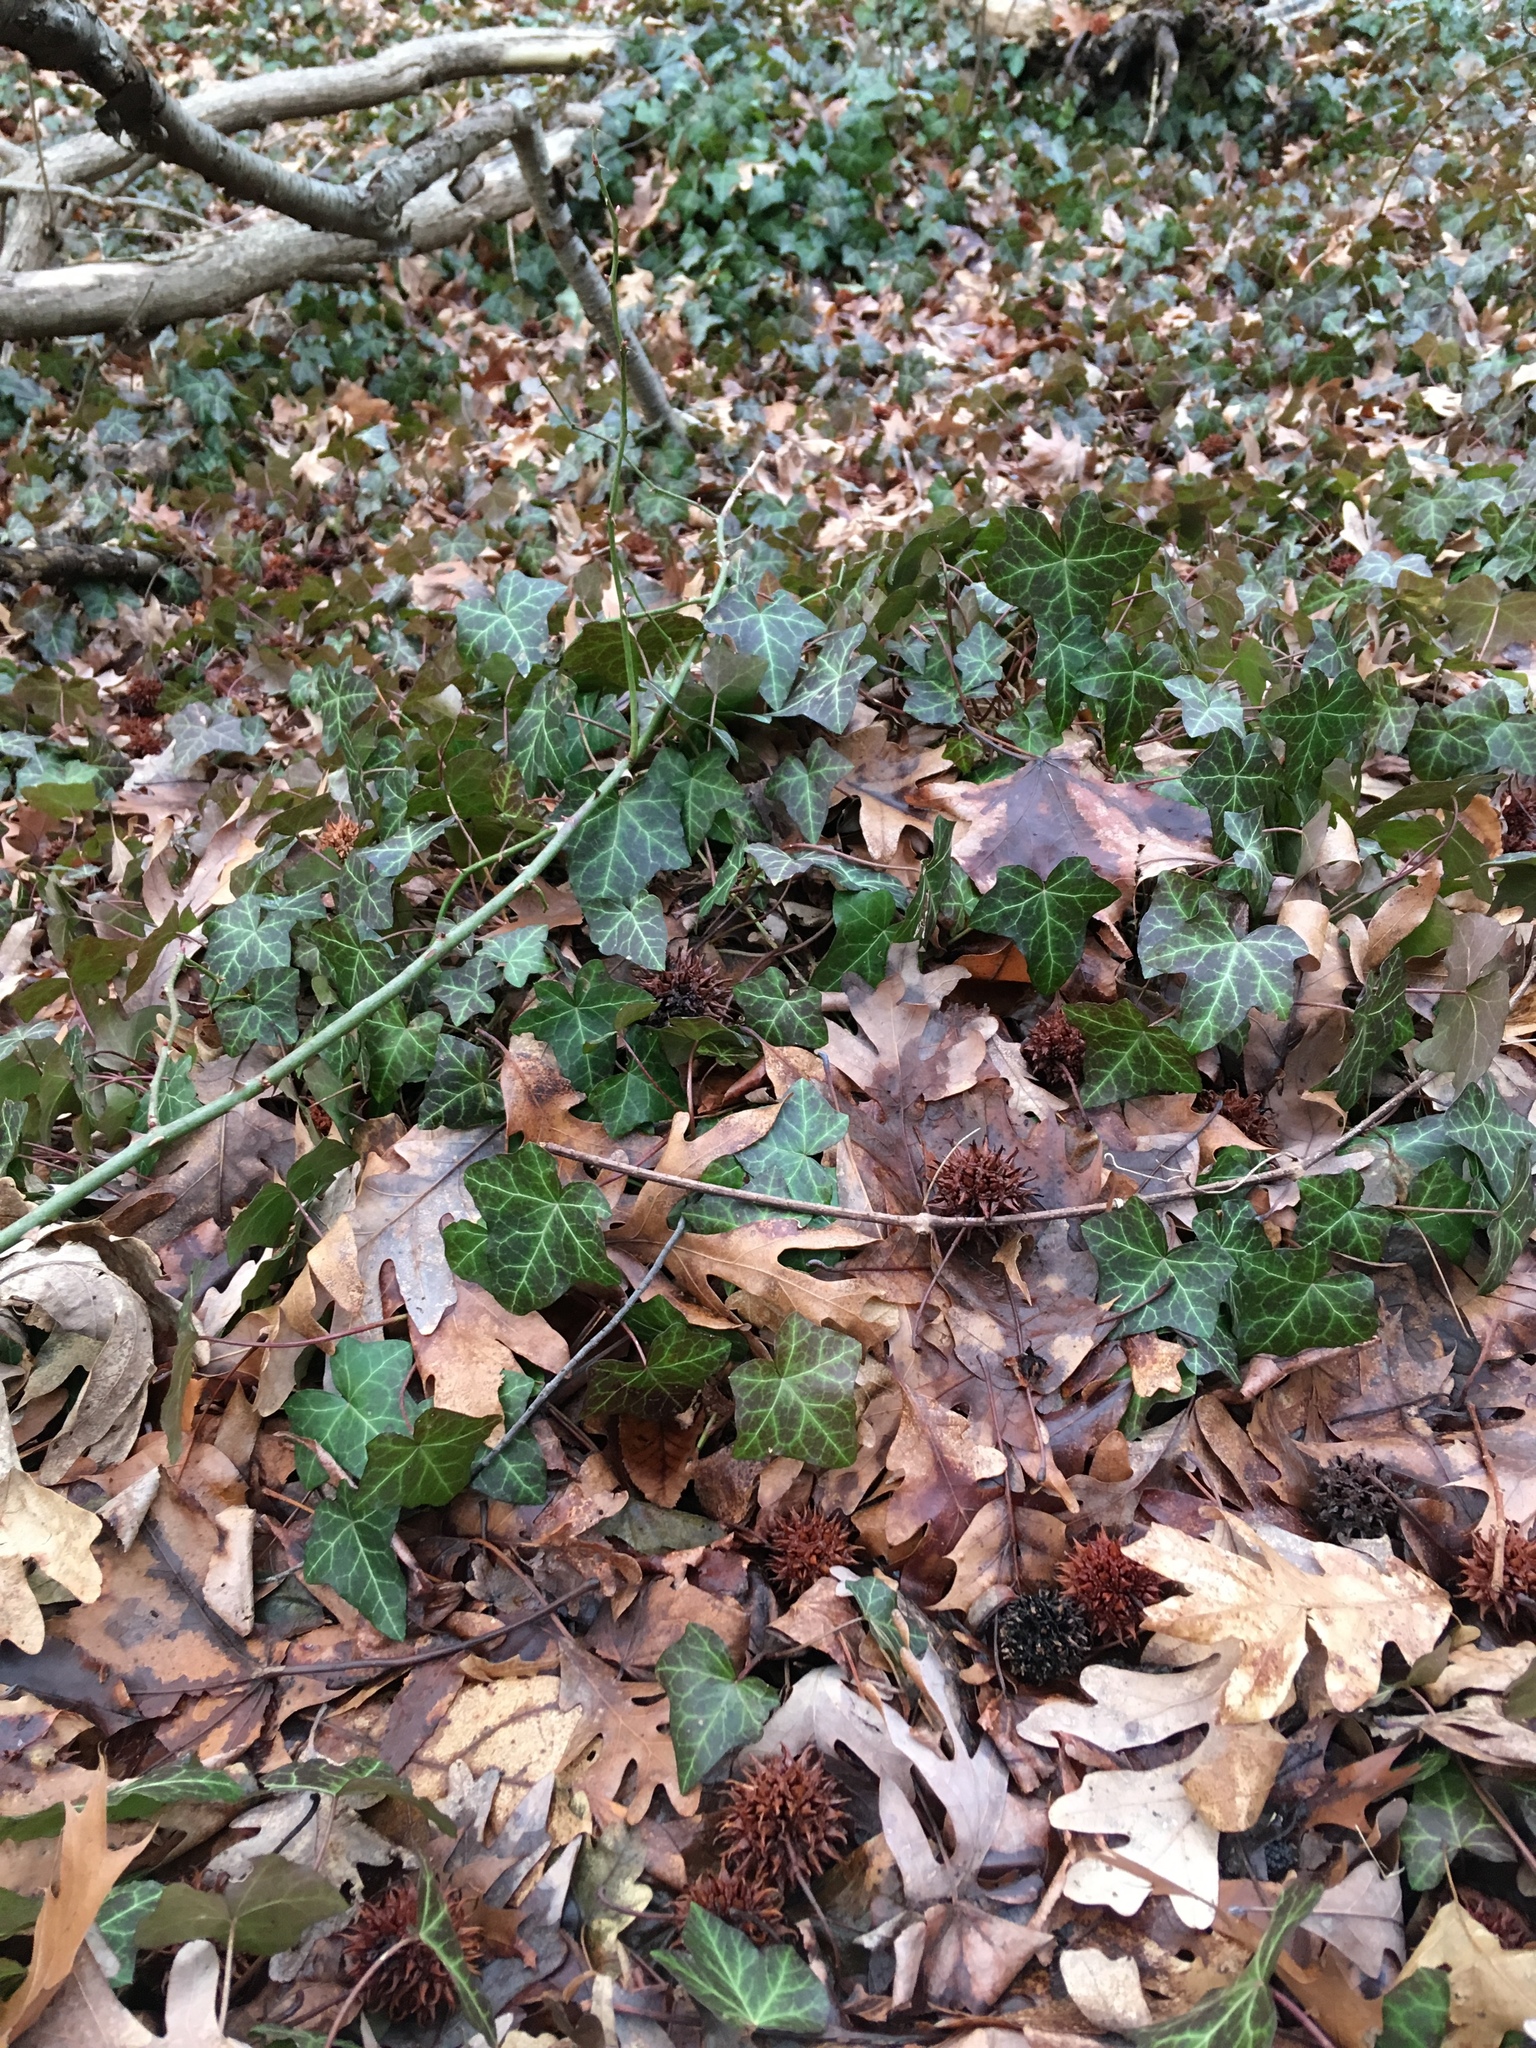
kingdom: Plantae
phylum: Tracheophyta
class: Magnoliopsida
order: Apiales
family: Araliaceae
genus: Hedera
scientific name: Hedera helix
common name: Ivy
